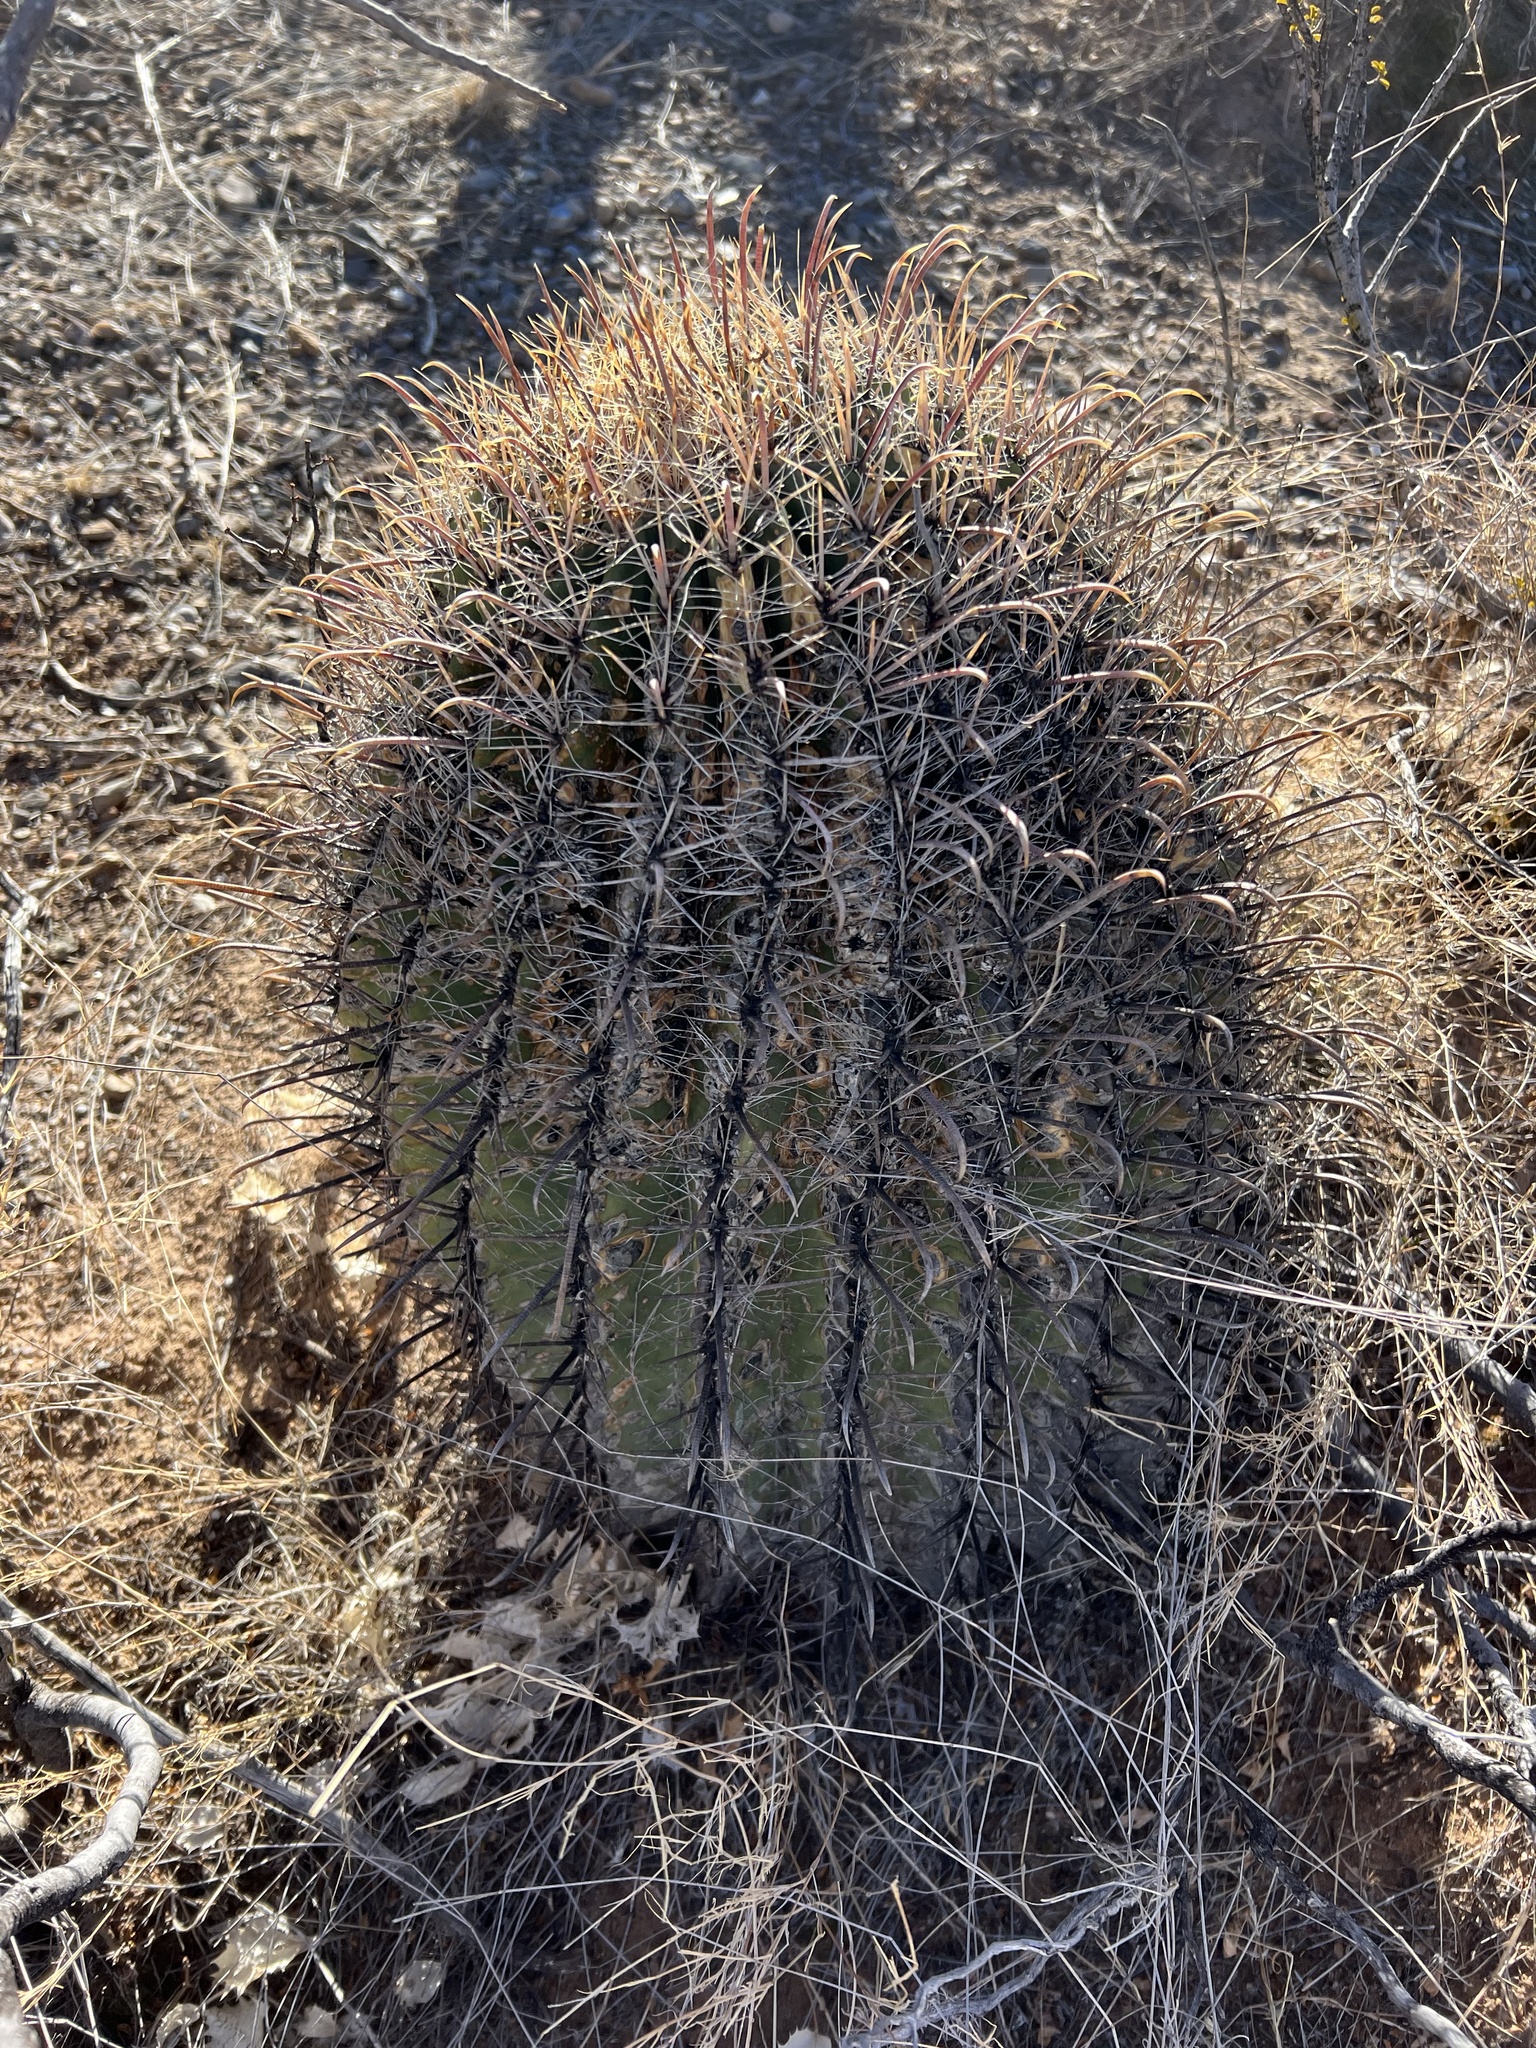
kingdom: Plantae
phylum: Tracheophyta
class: Magnoliopsida
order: Caryophyllales
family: Cactaceae
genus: Ferocactus
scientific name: Ferocactus wislizeni
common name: Candy barrel cactus
